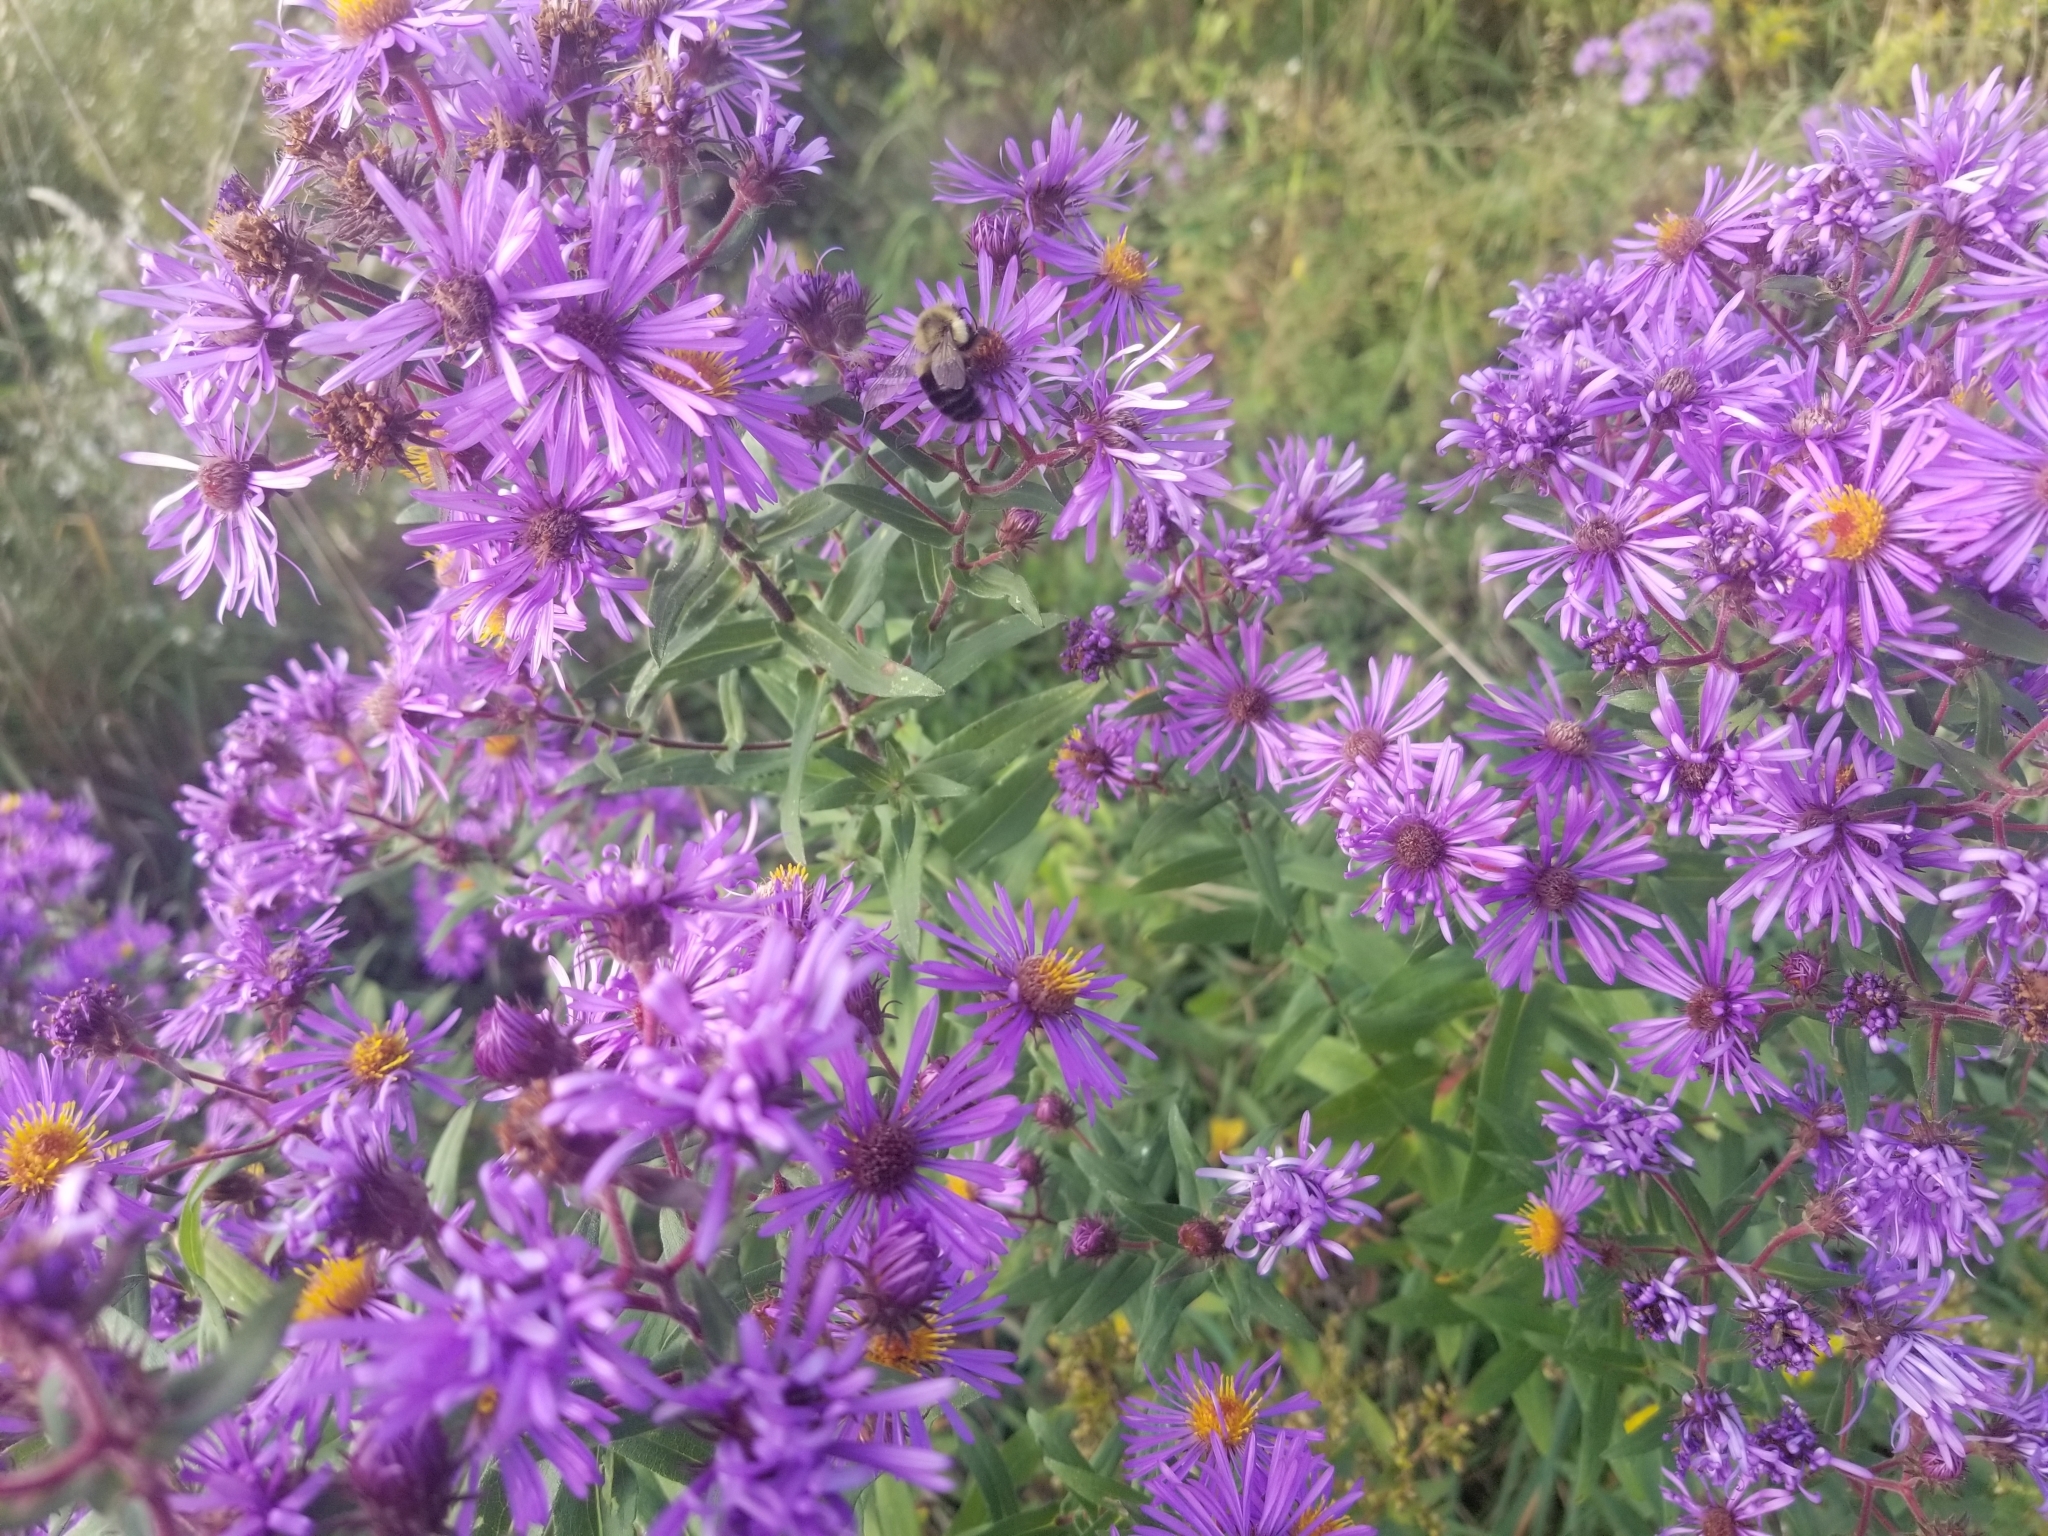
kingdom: Animalia
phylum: Arthropoda
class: Insecta
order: Hymenoptera
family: Apidae
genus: Bombus
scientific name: Bombus impatiens
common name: Common eastern bumble bee
